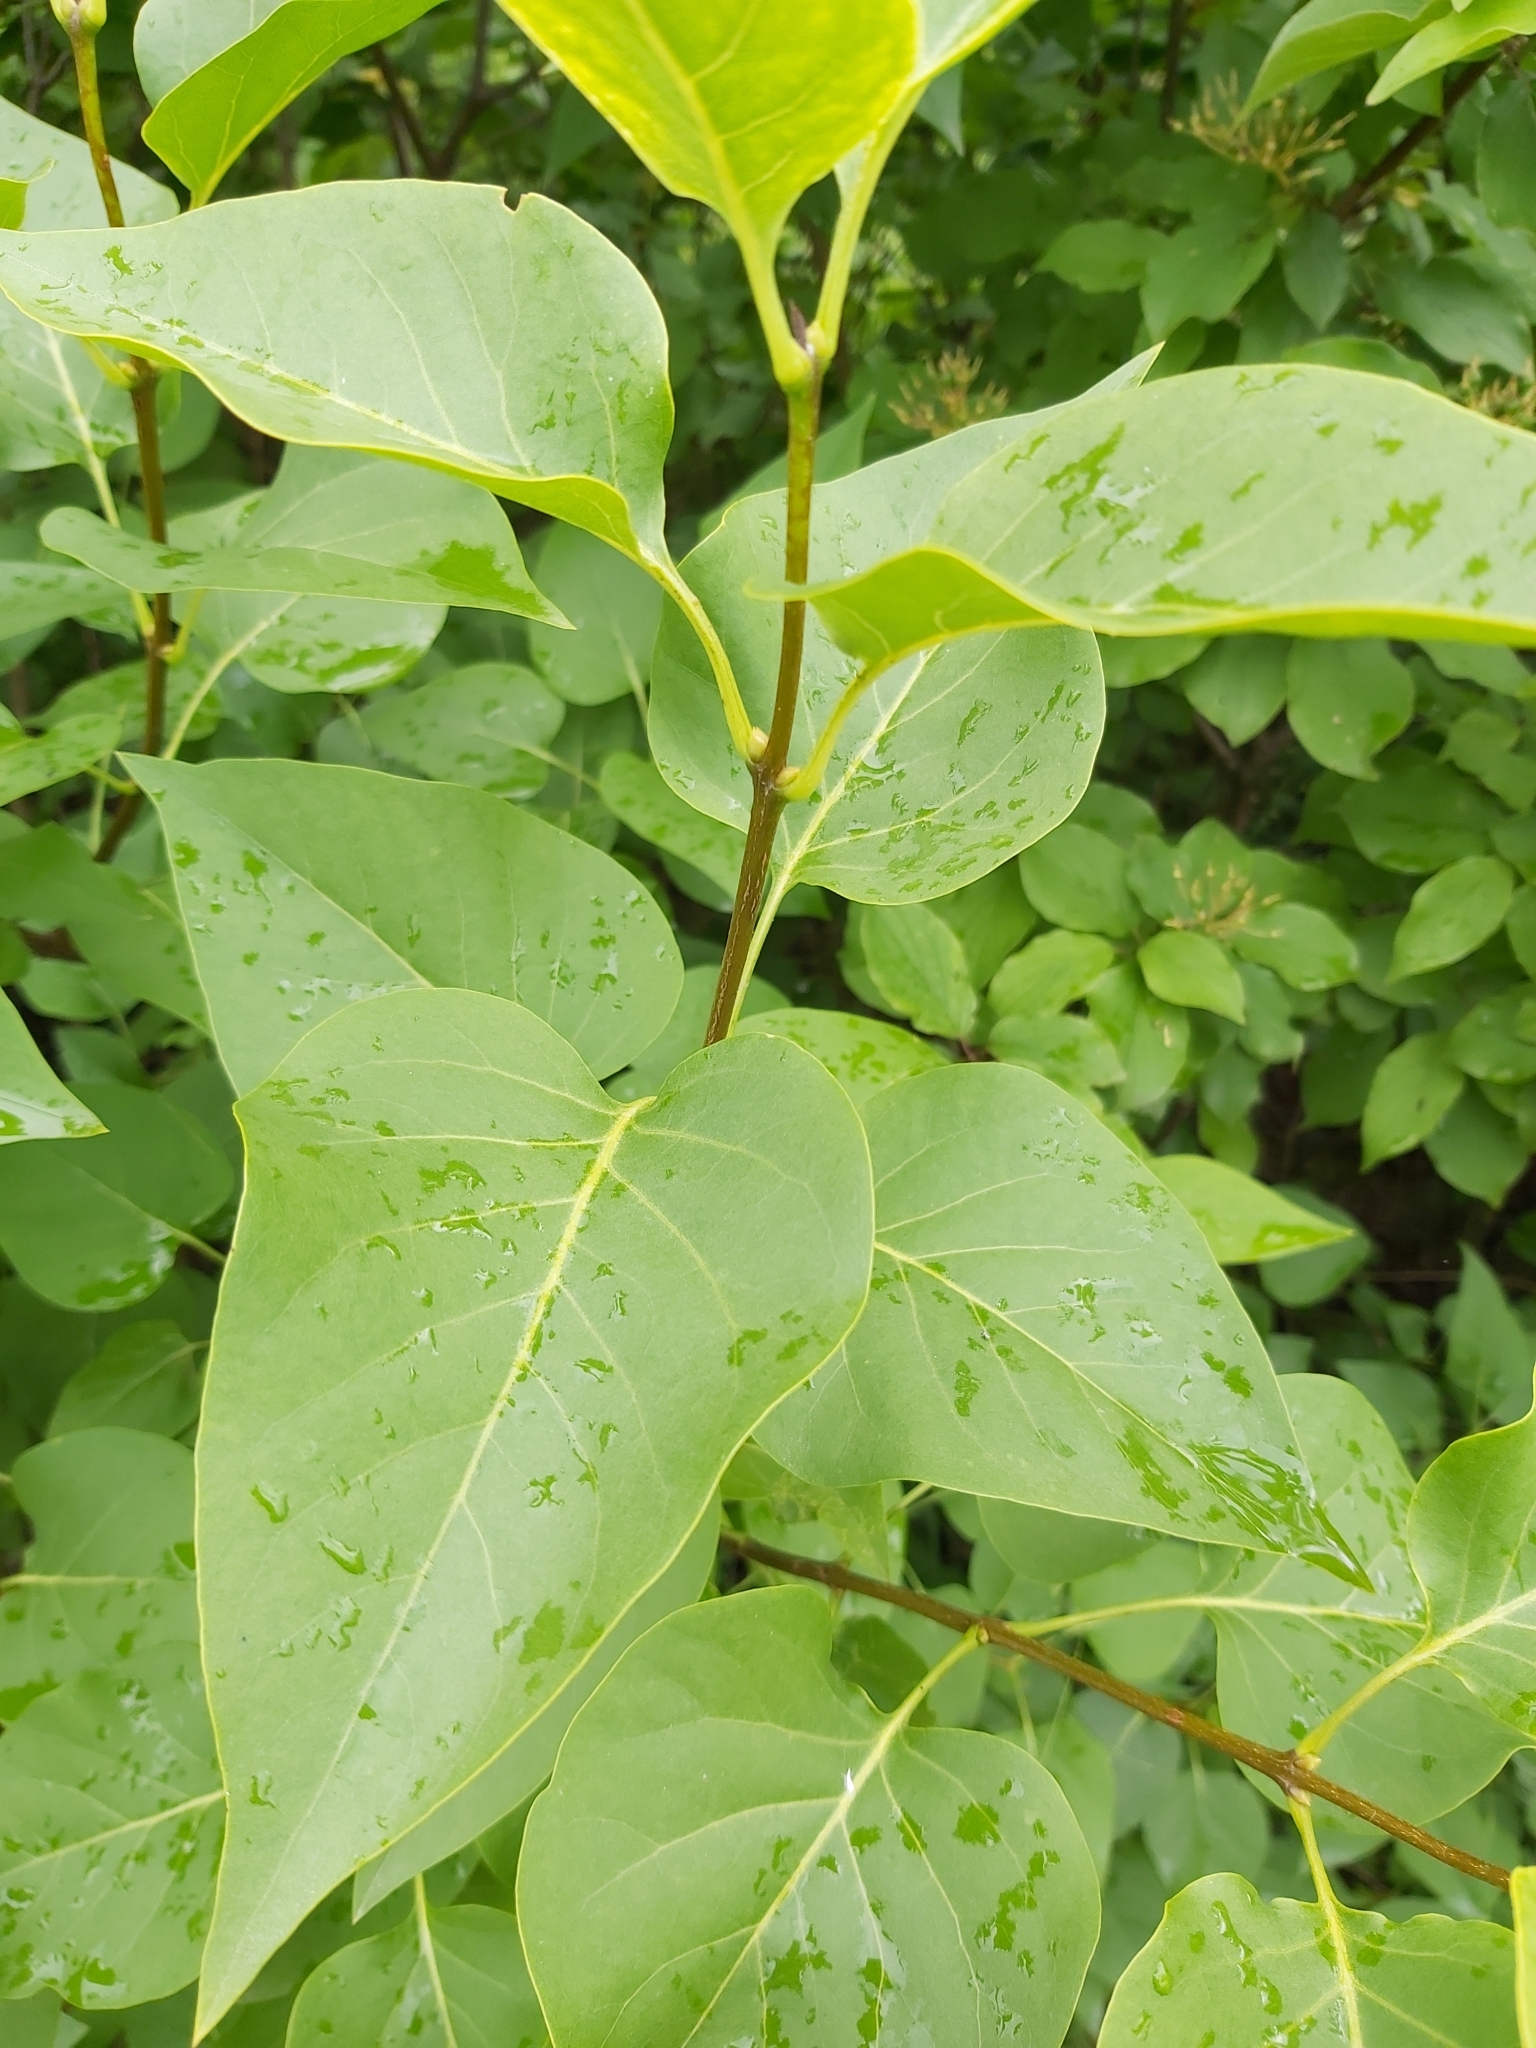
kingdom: Plantae
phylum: Tracheophyta
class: Magnoliopsida
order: Lamiales
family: Oleaceae
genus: Syringa
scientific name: Syringa vulgaris
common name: Common lilac
